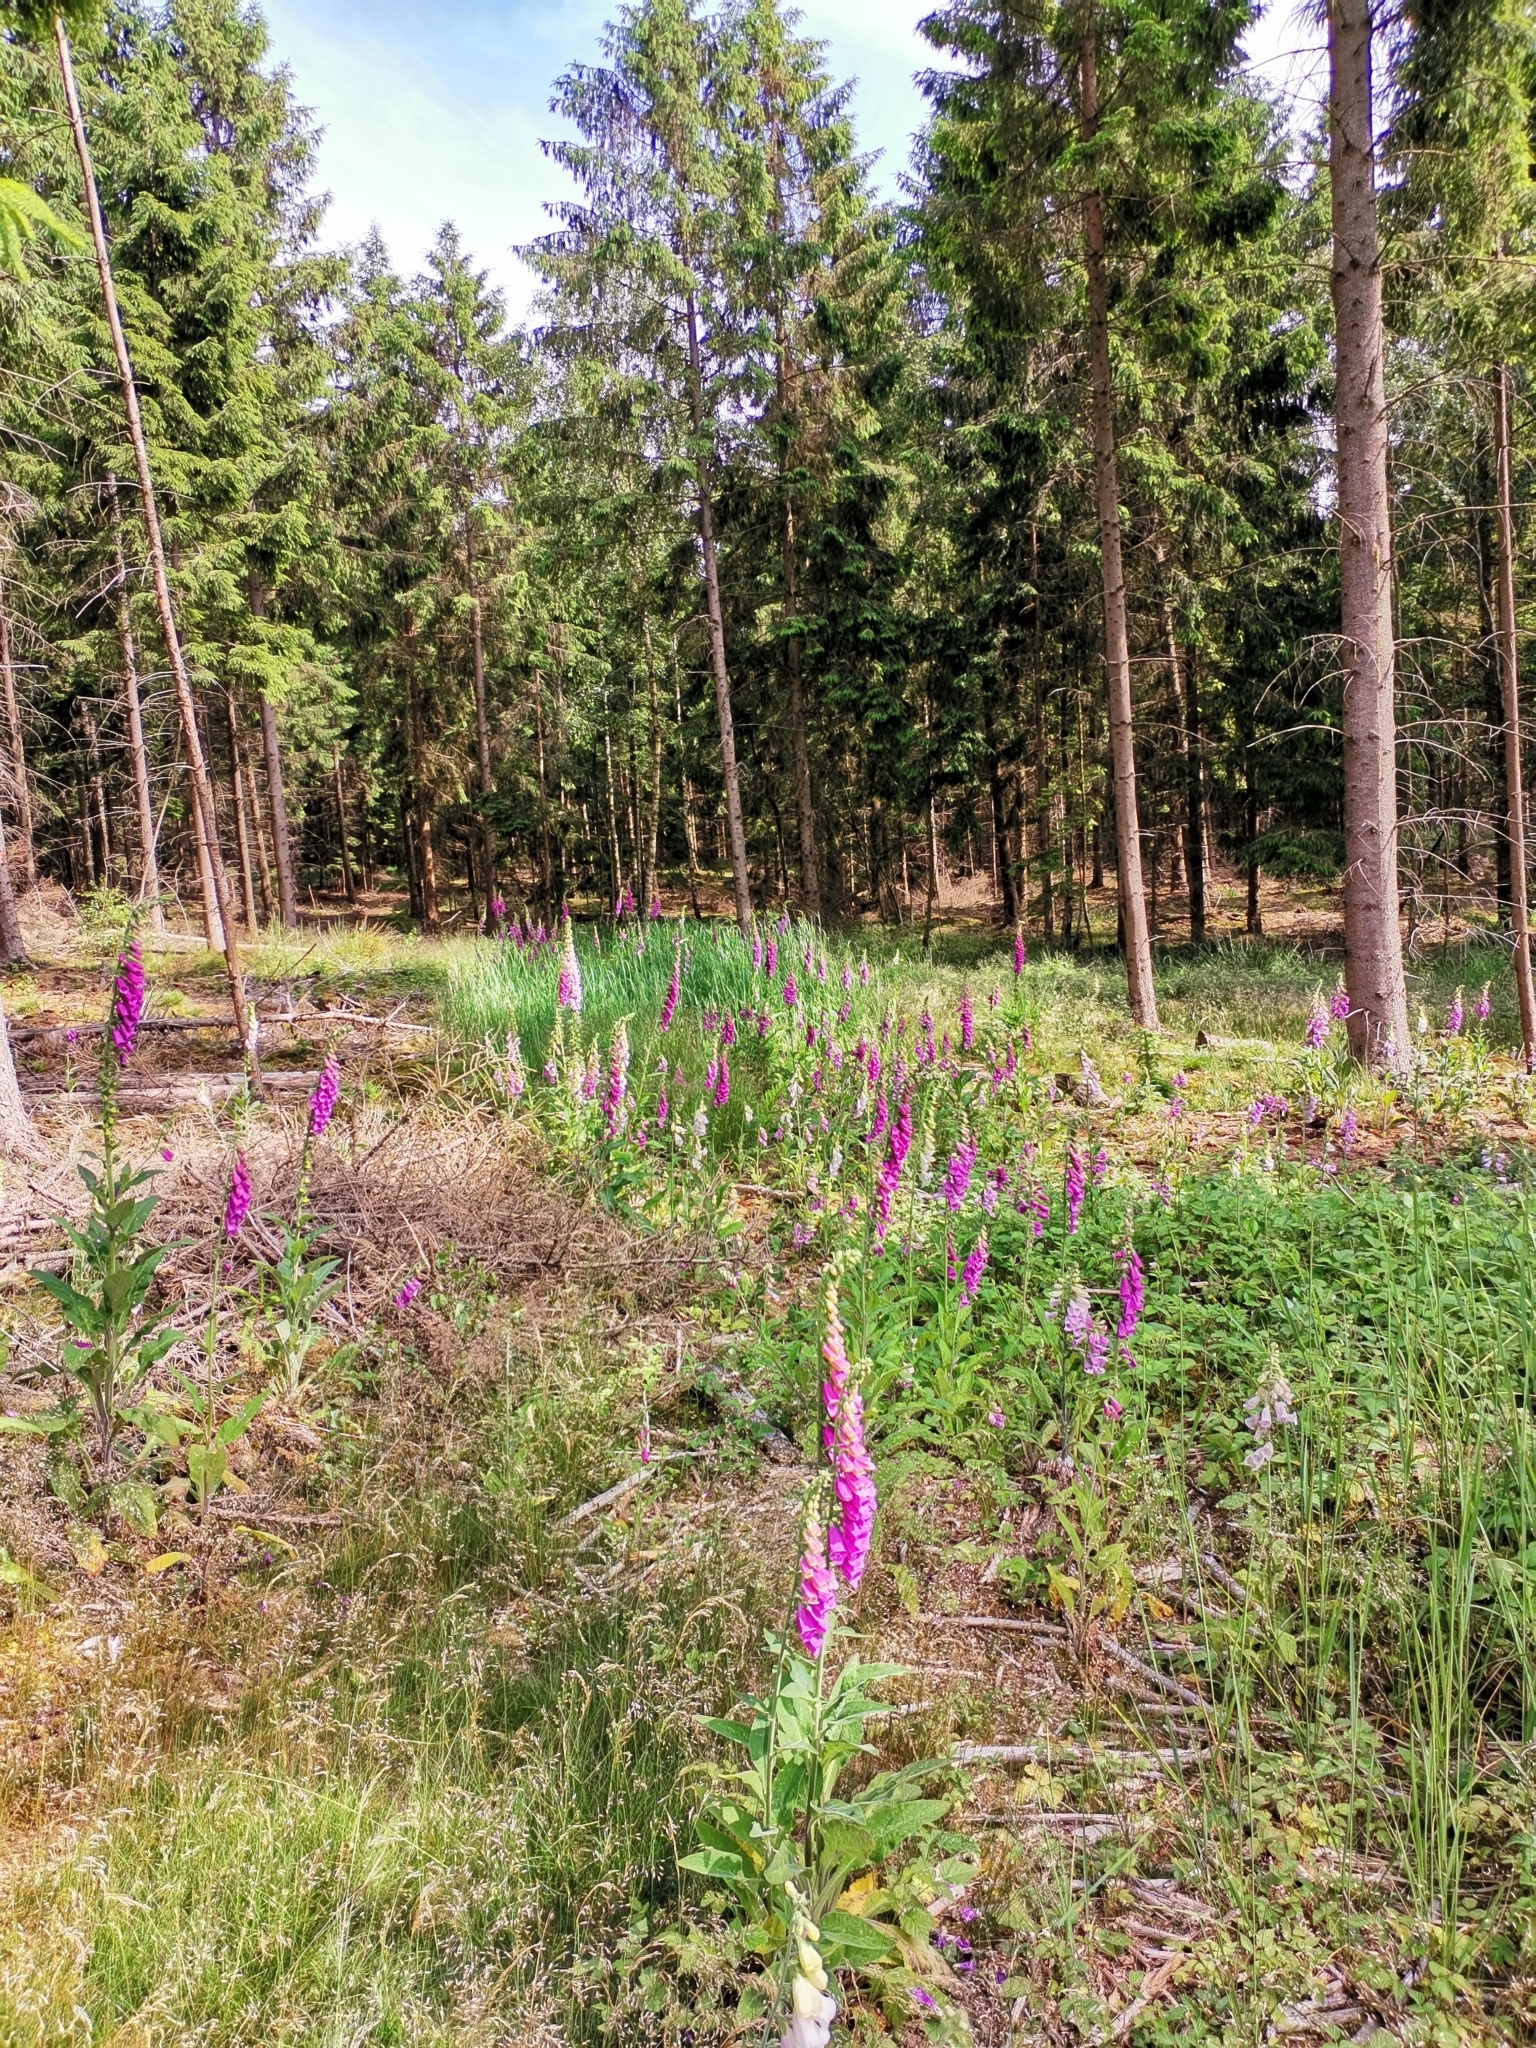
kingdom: Plantae
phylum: Tracheophyta
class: Magnoliopsida
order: Lamiales
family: Plantaginaceae
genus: Digitalis
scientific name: Digitalis purpurea
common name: Foxglove
